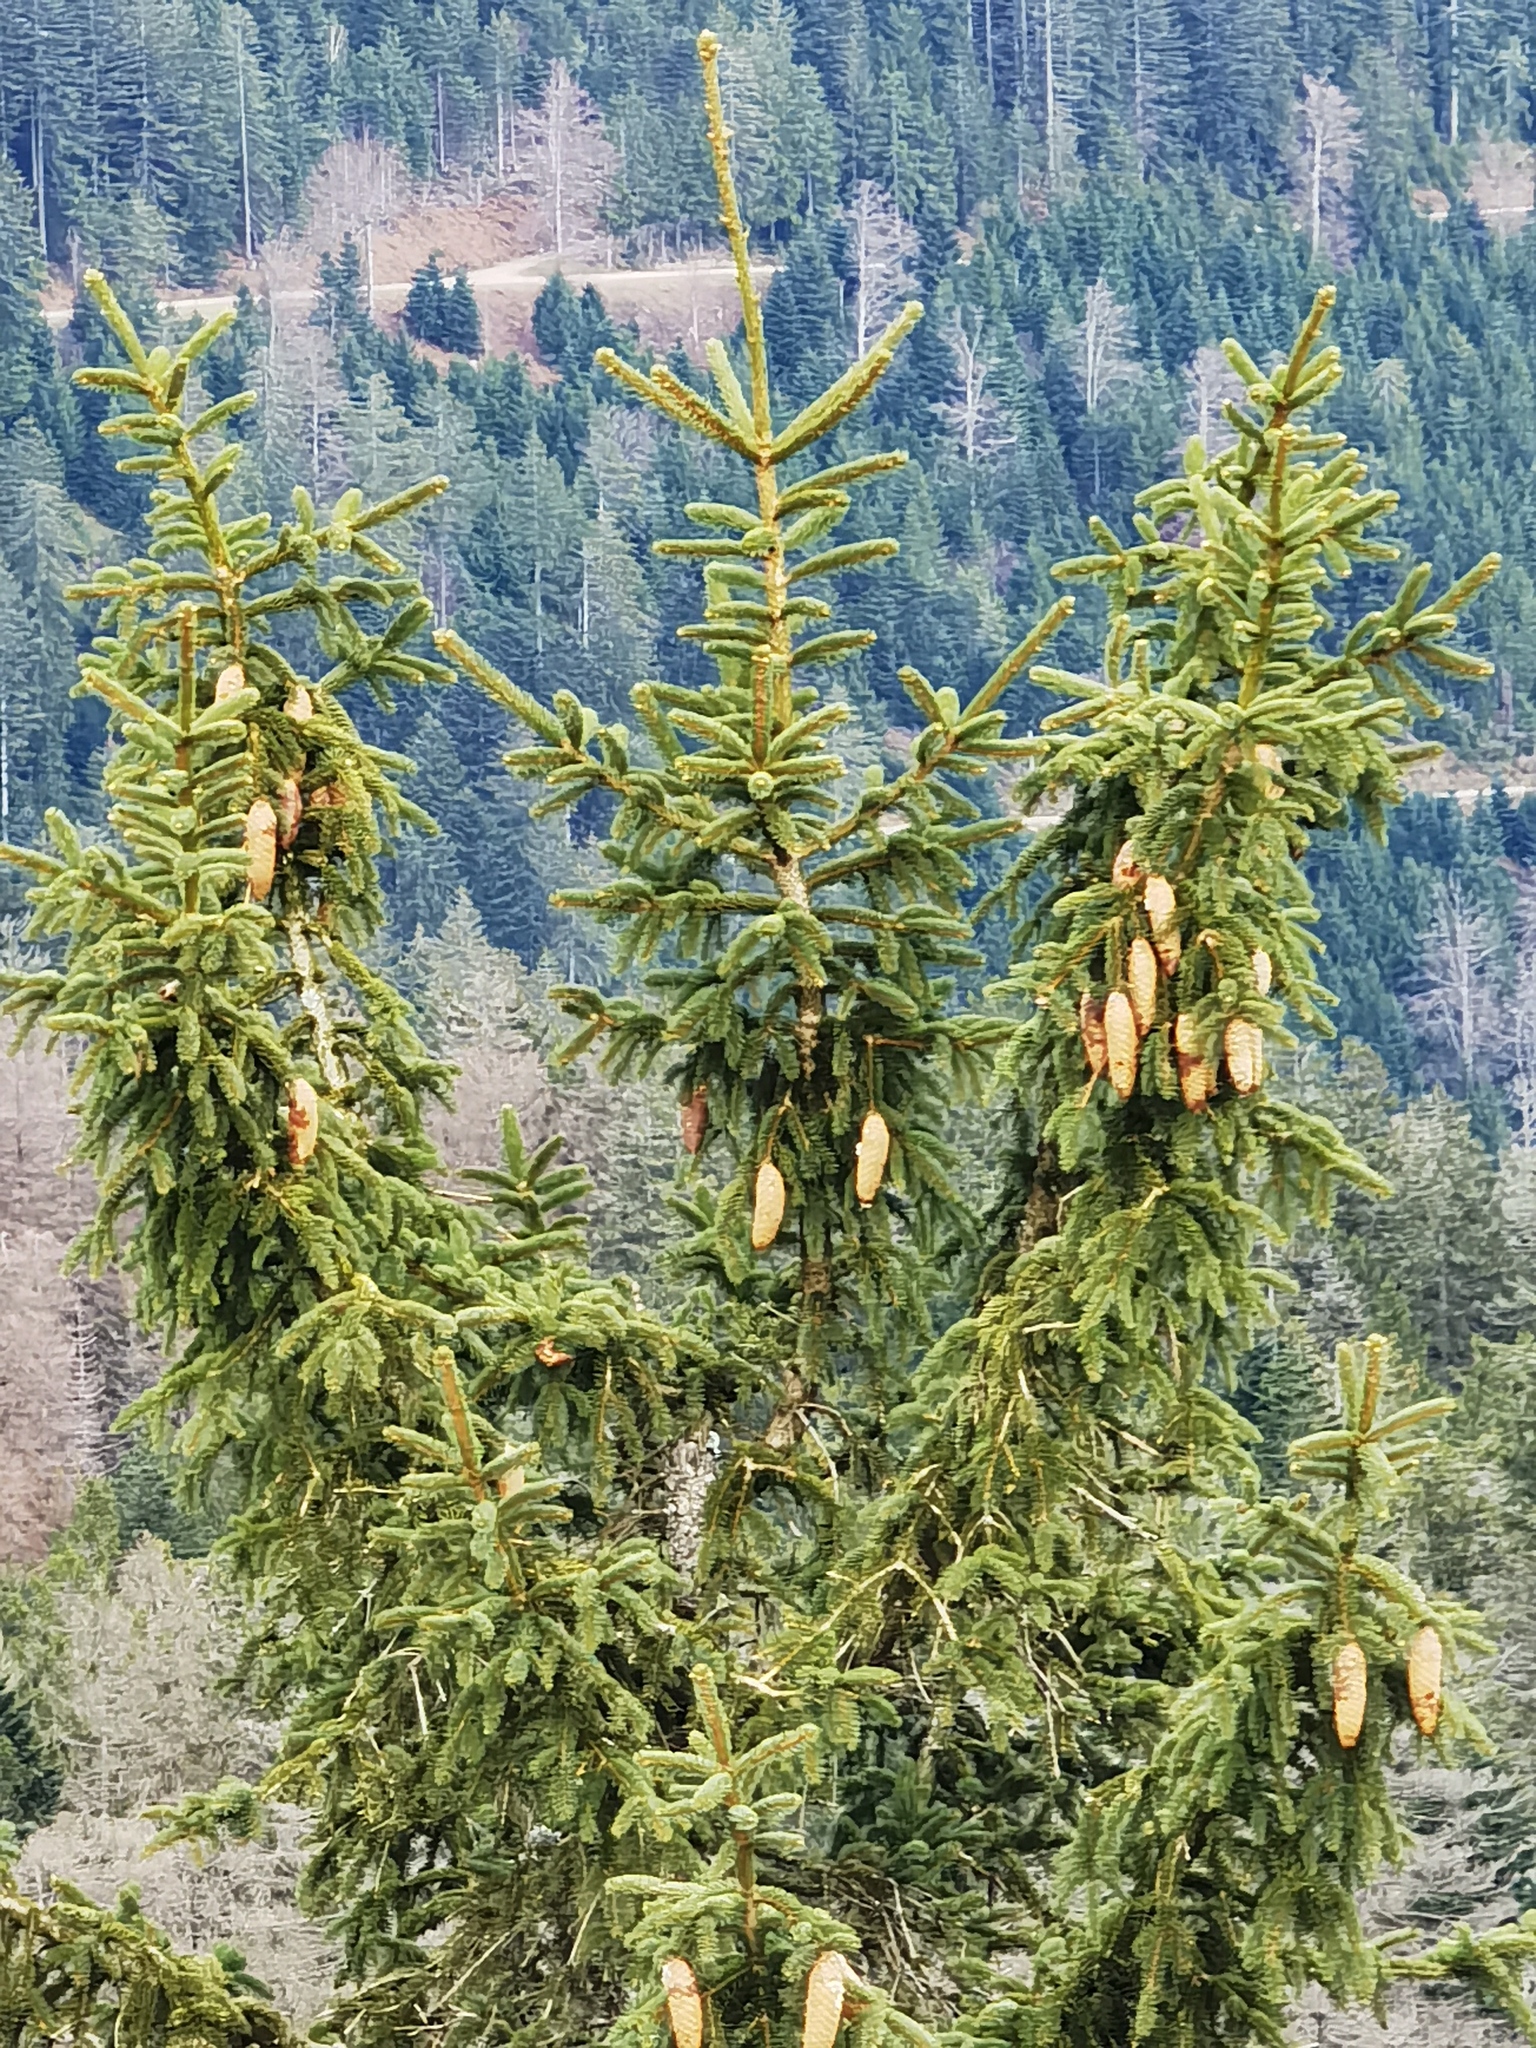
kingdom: Plantae
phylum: Tracheophyta
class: Pinopsida
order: Pinales
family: Pinaceae
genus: Picea
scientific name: Picea abies
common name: Norway spruce
